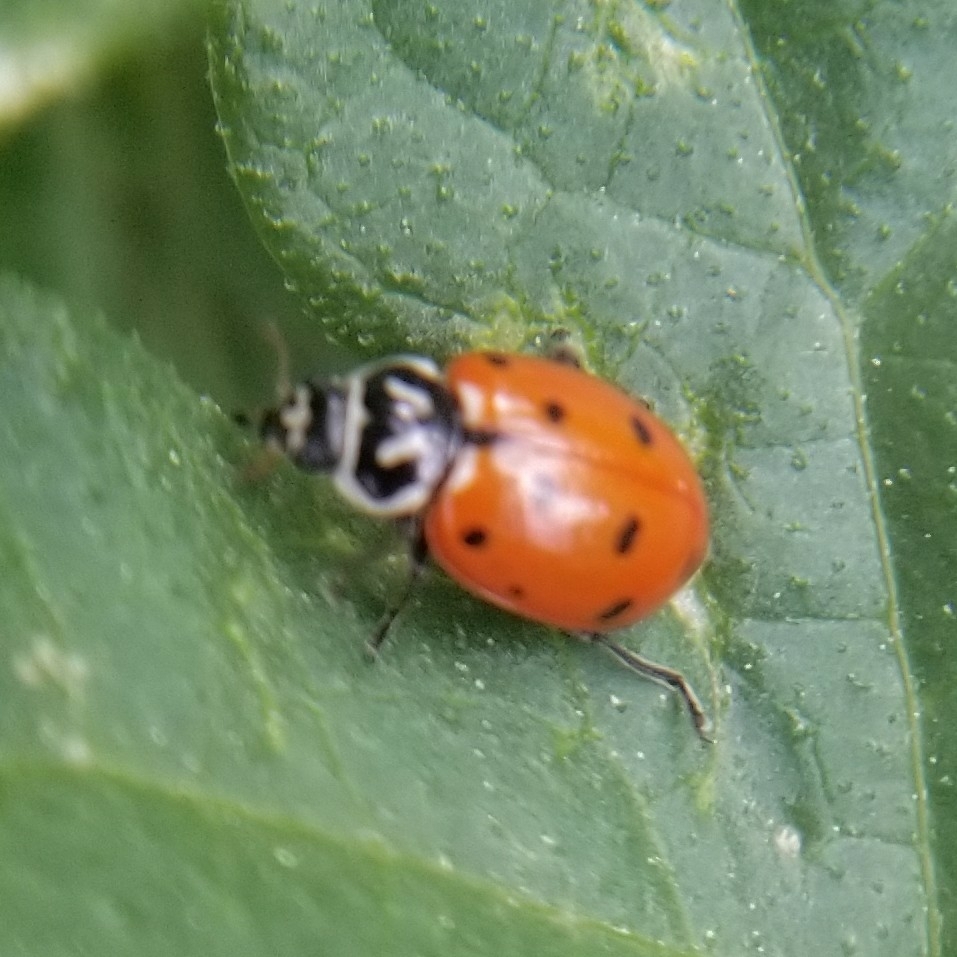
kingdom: Animalia
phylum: Arthropoda
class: Insecta
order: Coleoptera
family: Coccinellidae
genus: Hippodamia
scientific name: Hippodamia convergens
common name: Convergent lady beetle
